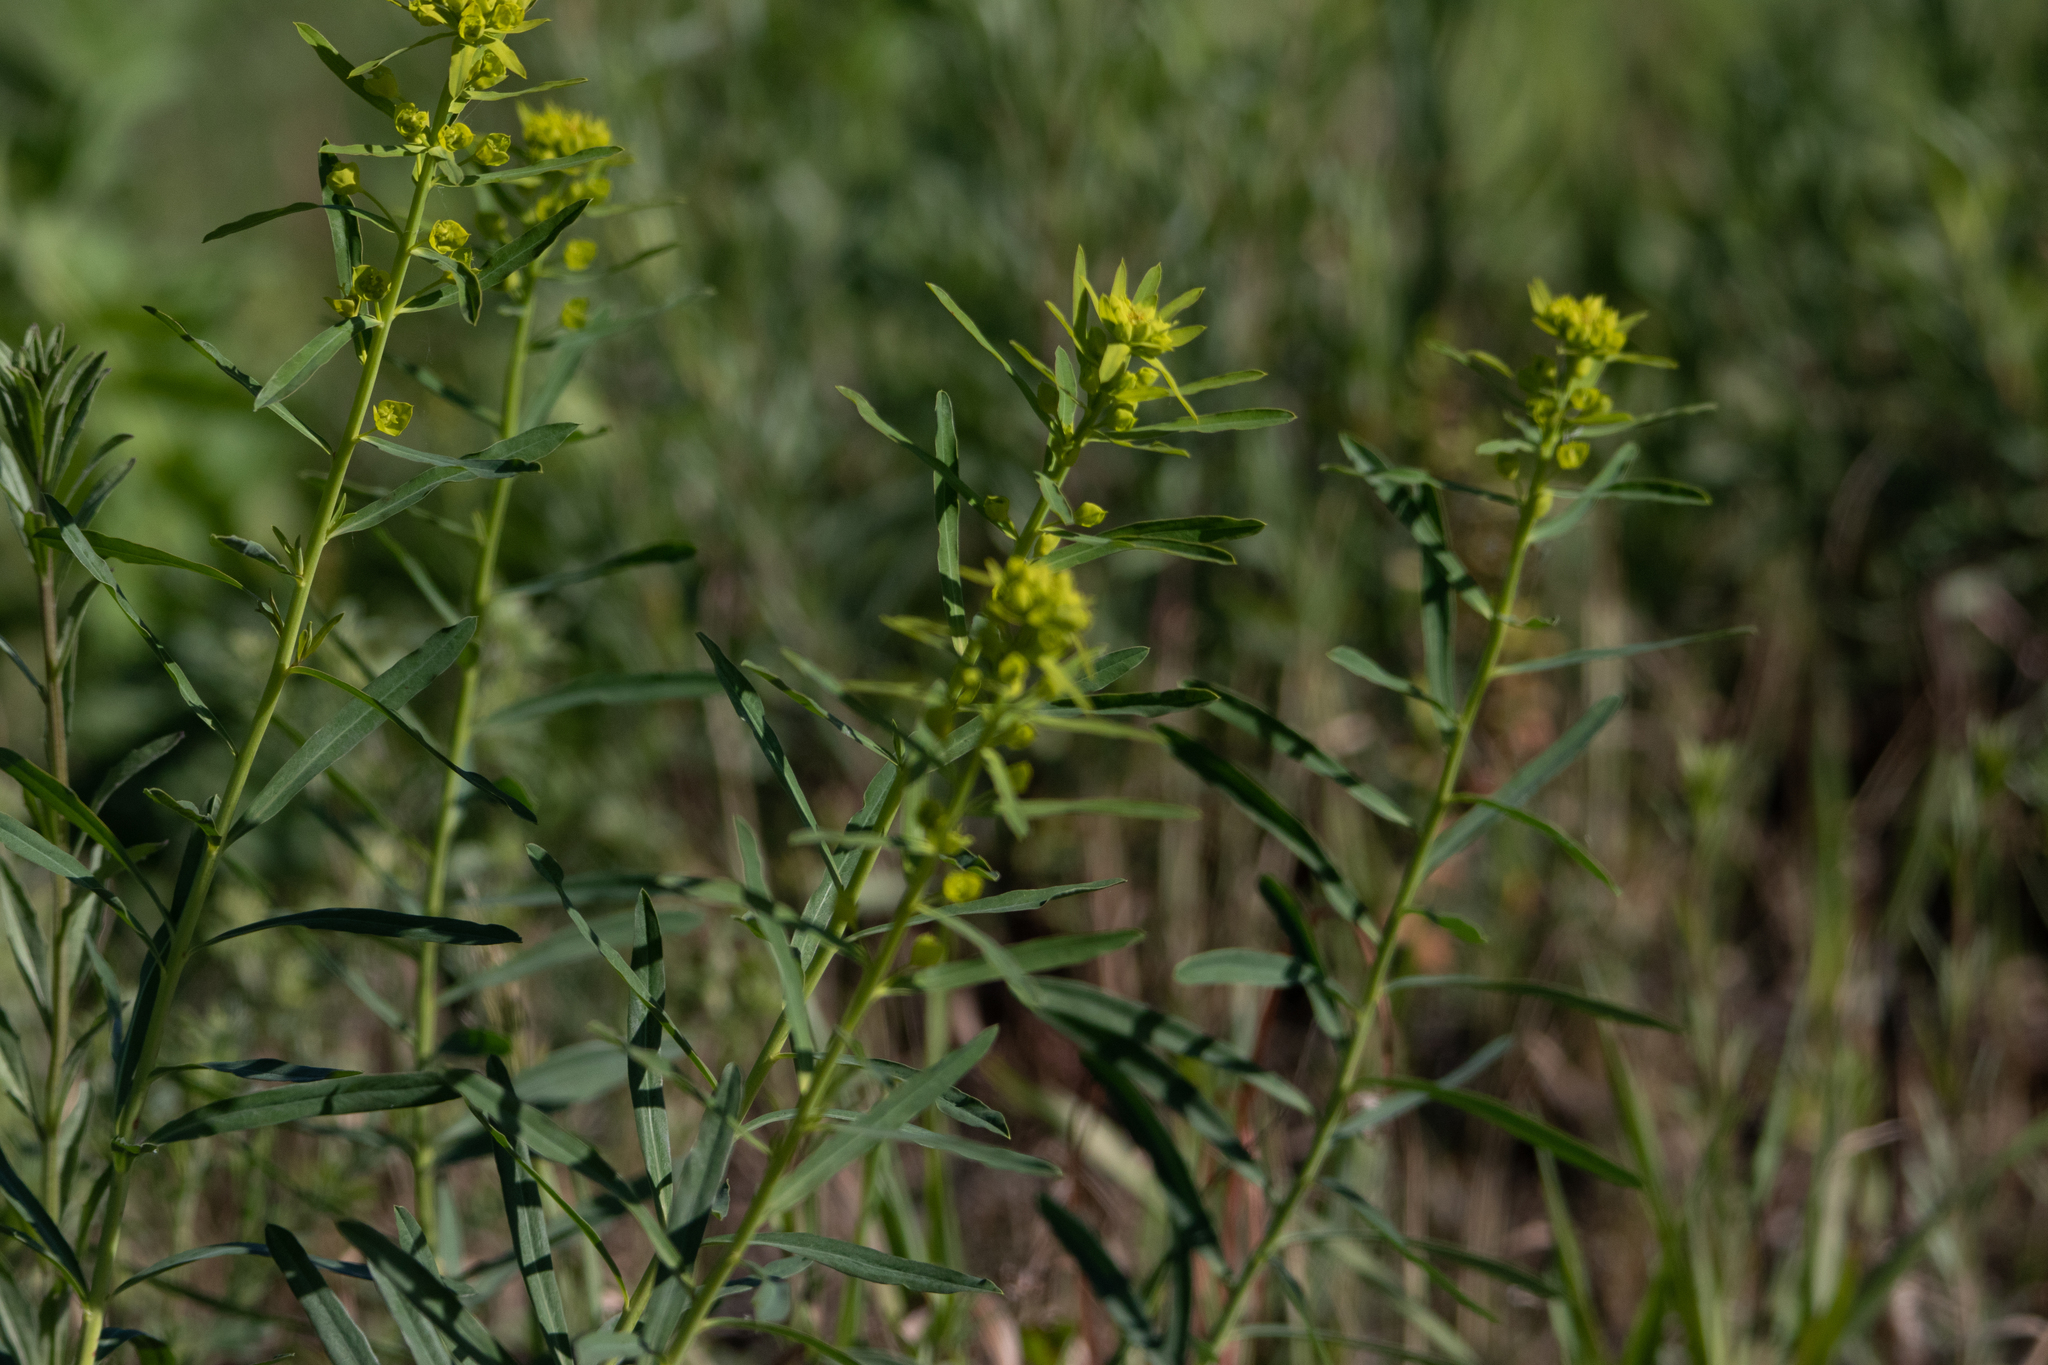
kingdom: Plantae
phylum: Tracheophyta
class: Magnoliopsida
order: Malpighiales
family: Euphorbiaceae
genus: Euphorbia
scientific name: Euphorbia virgata
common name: Leafy spurge
